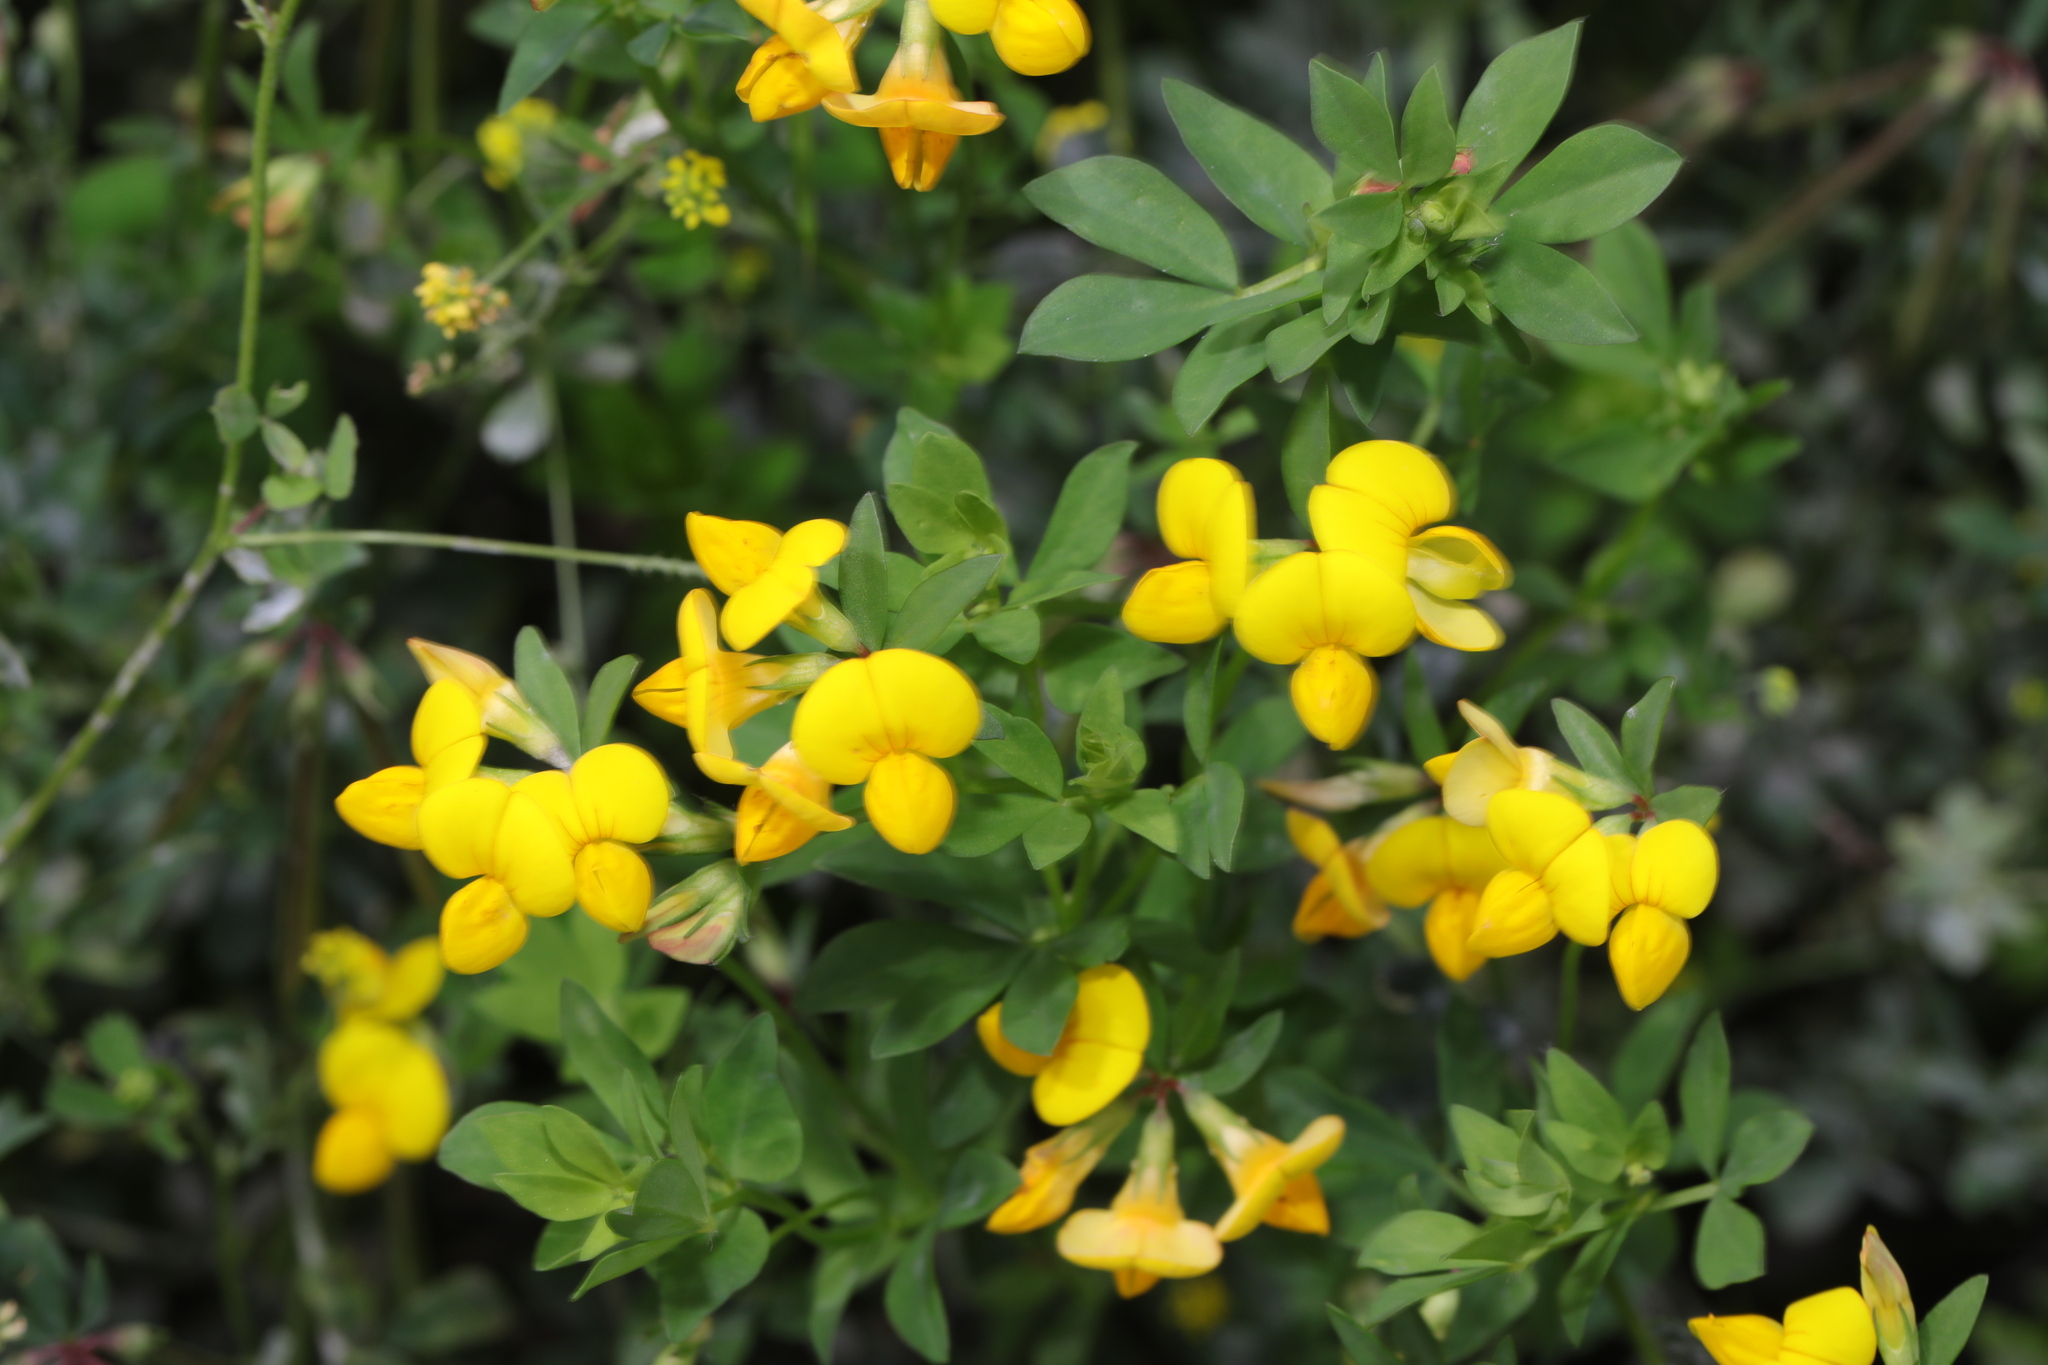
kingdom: Plantae
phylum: Tracheophyta
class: Magnoliopsida
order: Fabales
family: Fabaceae
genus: Lotus
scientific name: Lotus corniculatus
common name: Common bird's-foot-trefoil
